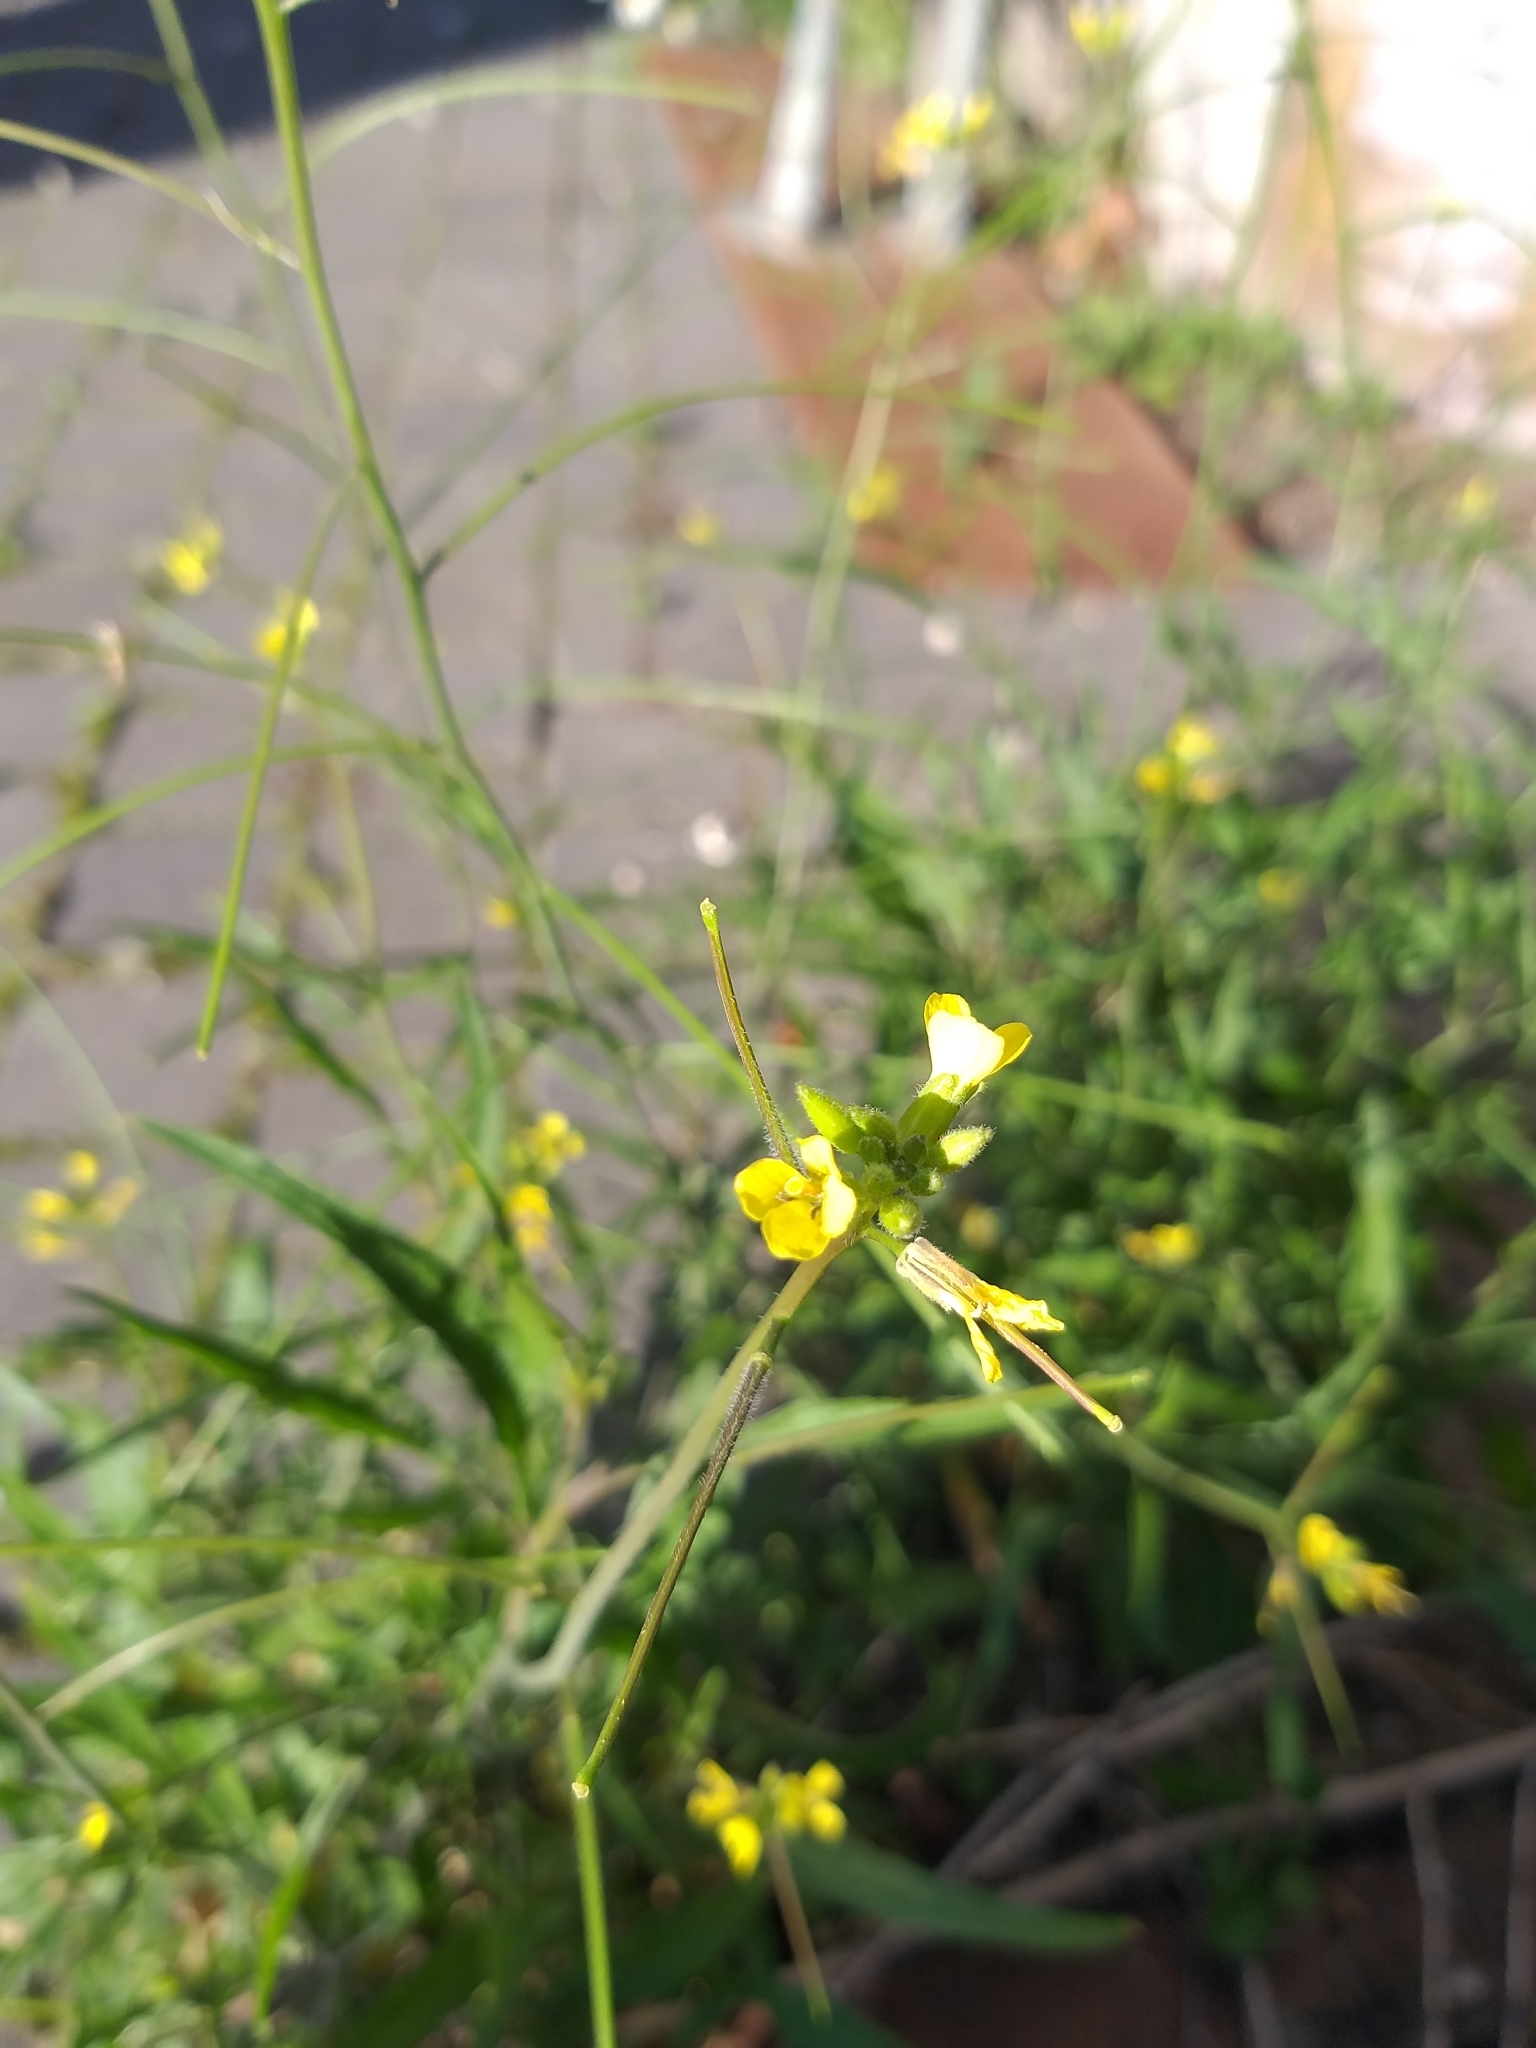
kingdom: Plantae
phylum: Tracheophyta
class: Magnoliopsida
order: Brassicales
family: Brassicaceae
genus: Sisymbrium
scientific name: Sisymbrium orientale
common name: Eastern rocket
